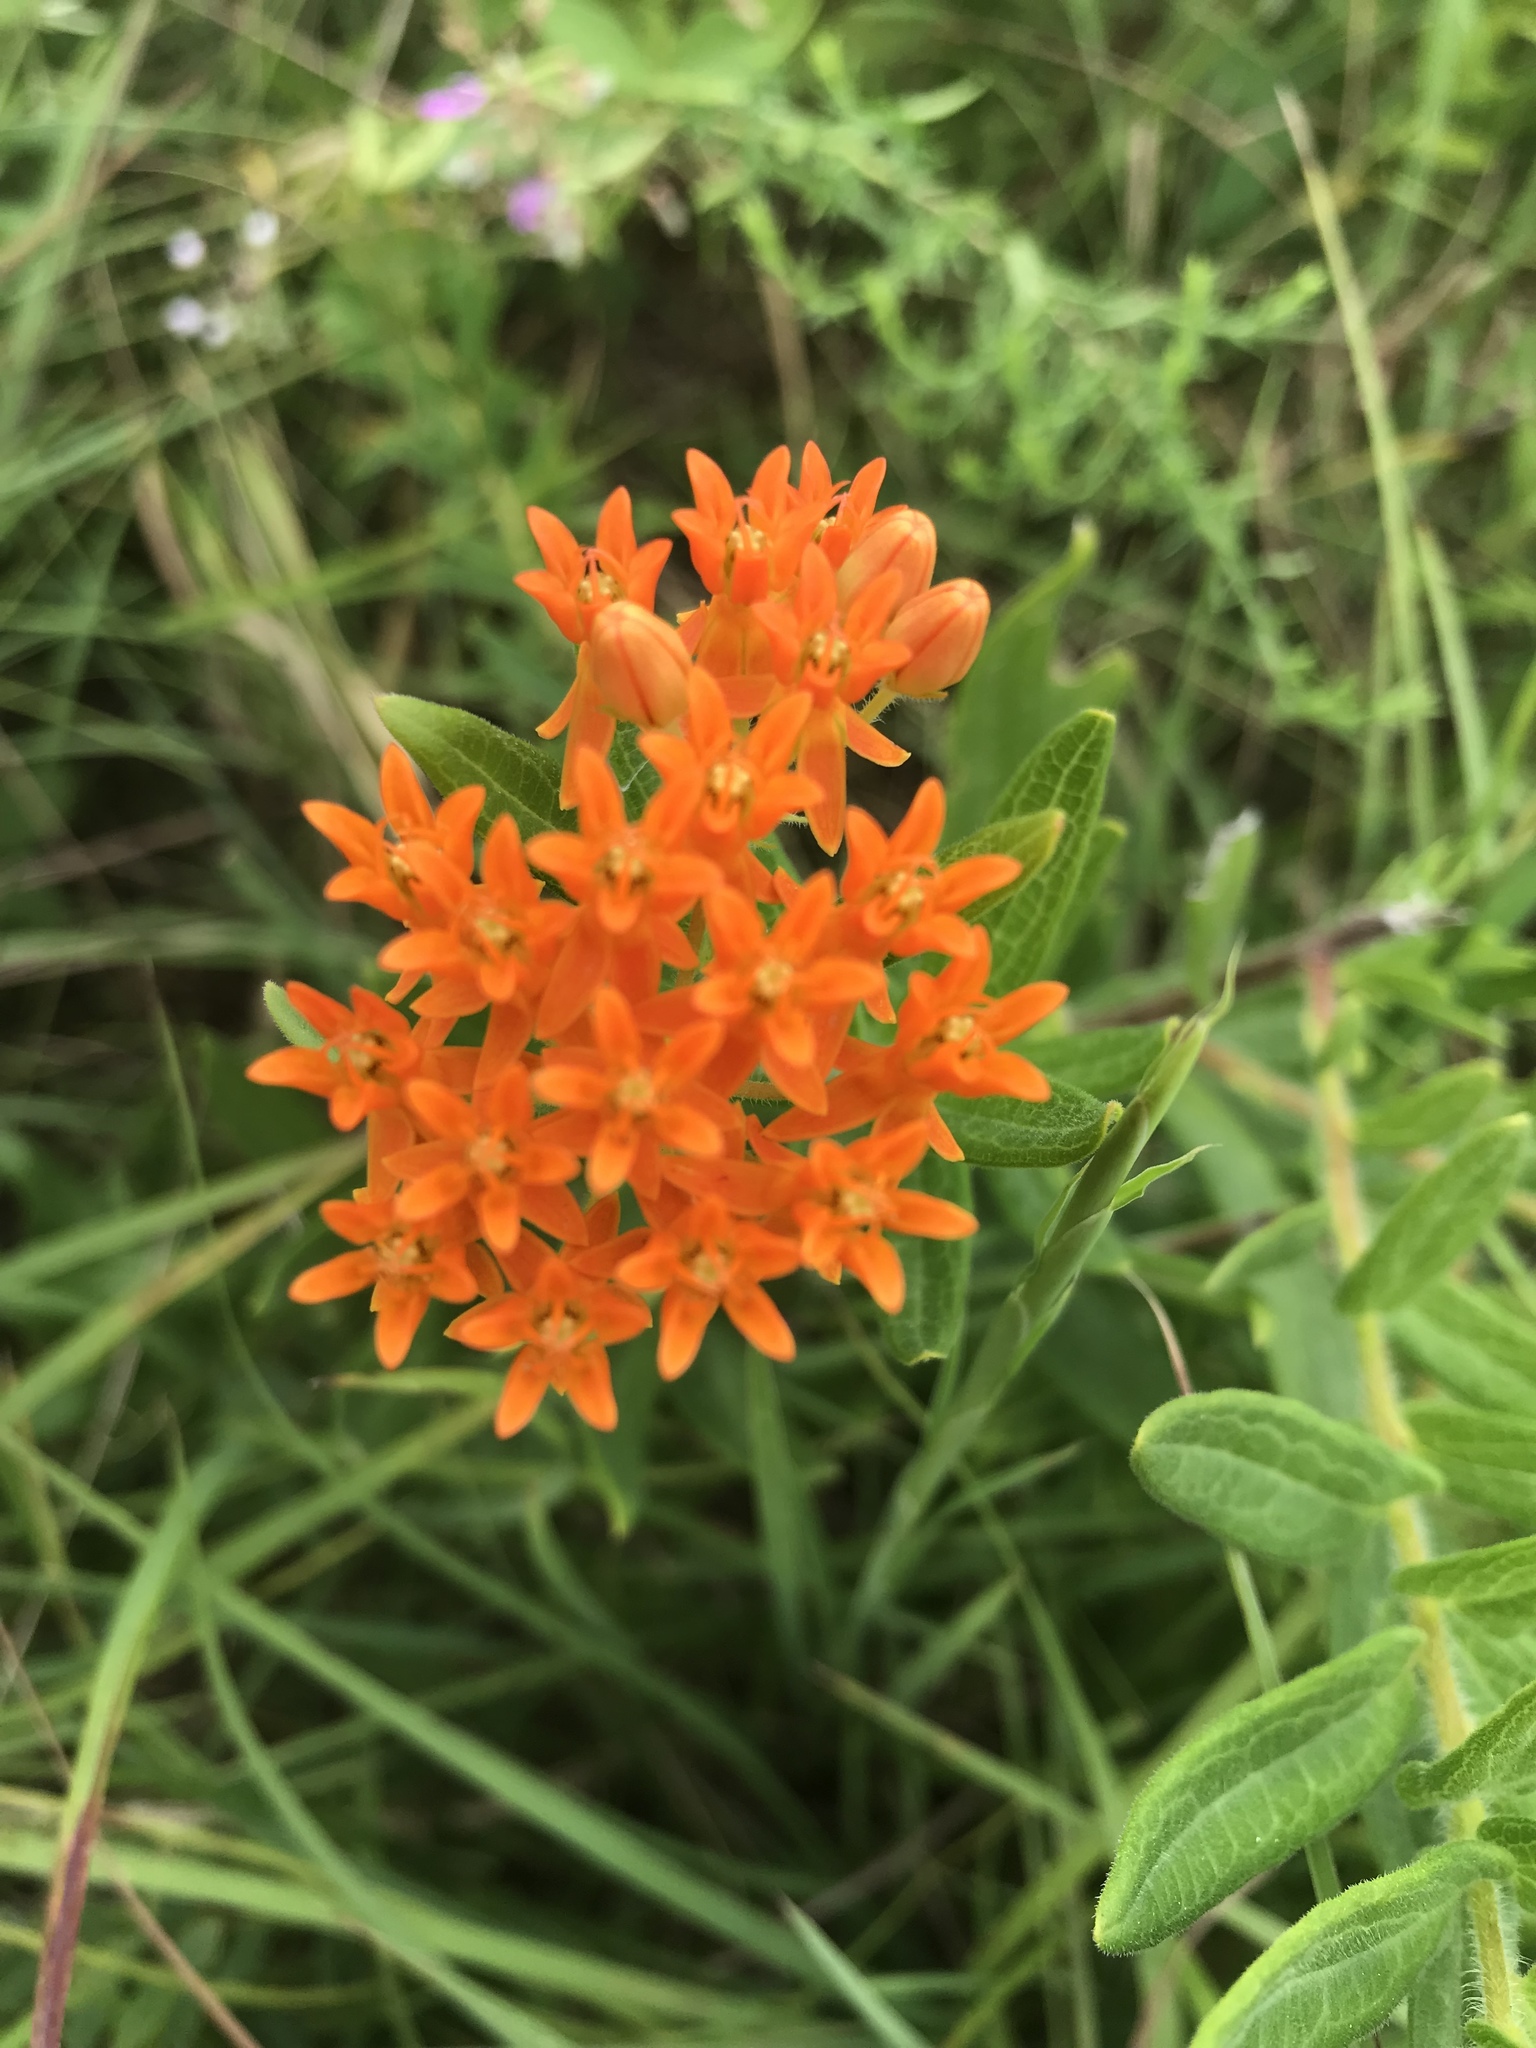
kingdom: Plantae
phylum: Tracheophyta
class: Magnoliopsida
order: Gentianales
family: Apocynaceae
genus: Asclepias
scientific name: Asclepias tuberosa
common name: Butterfly milkweed
